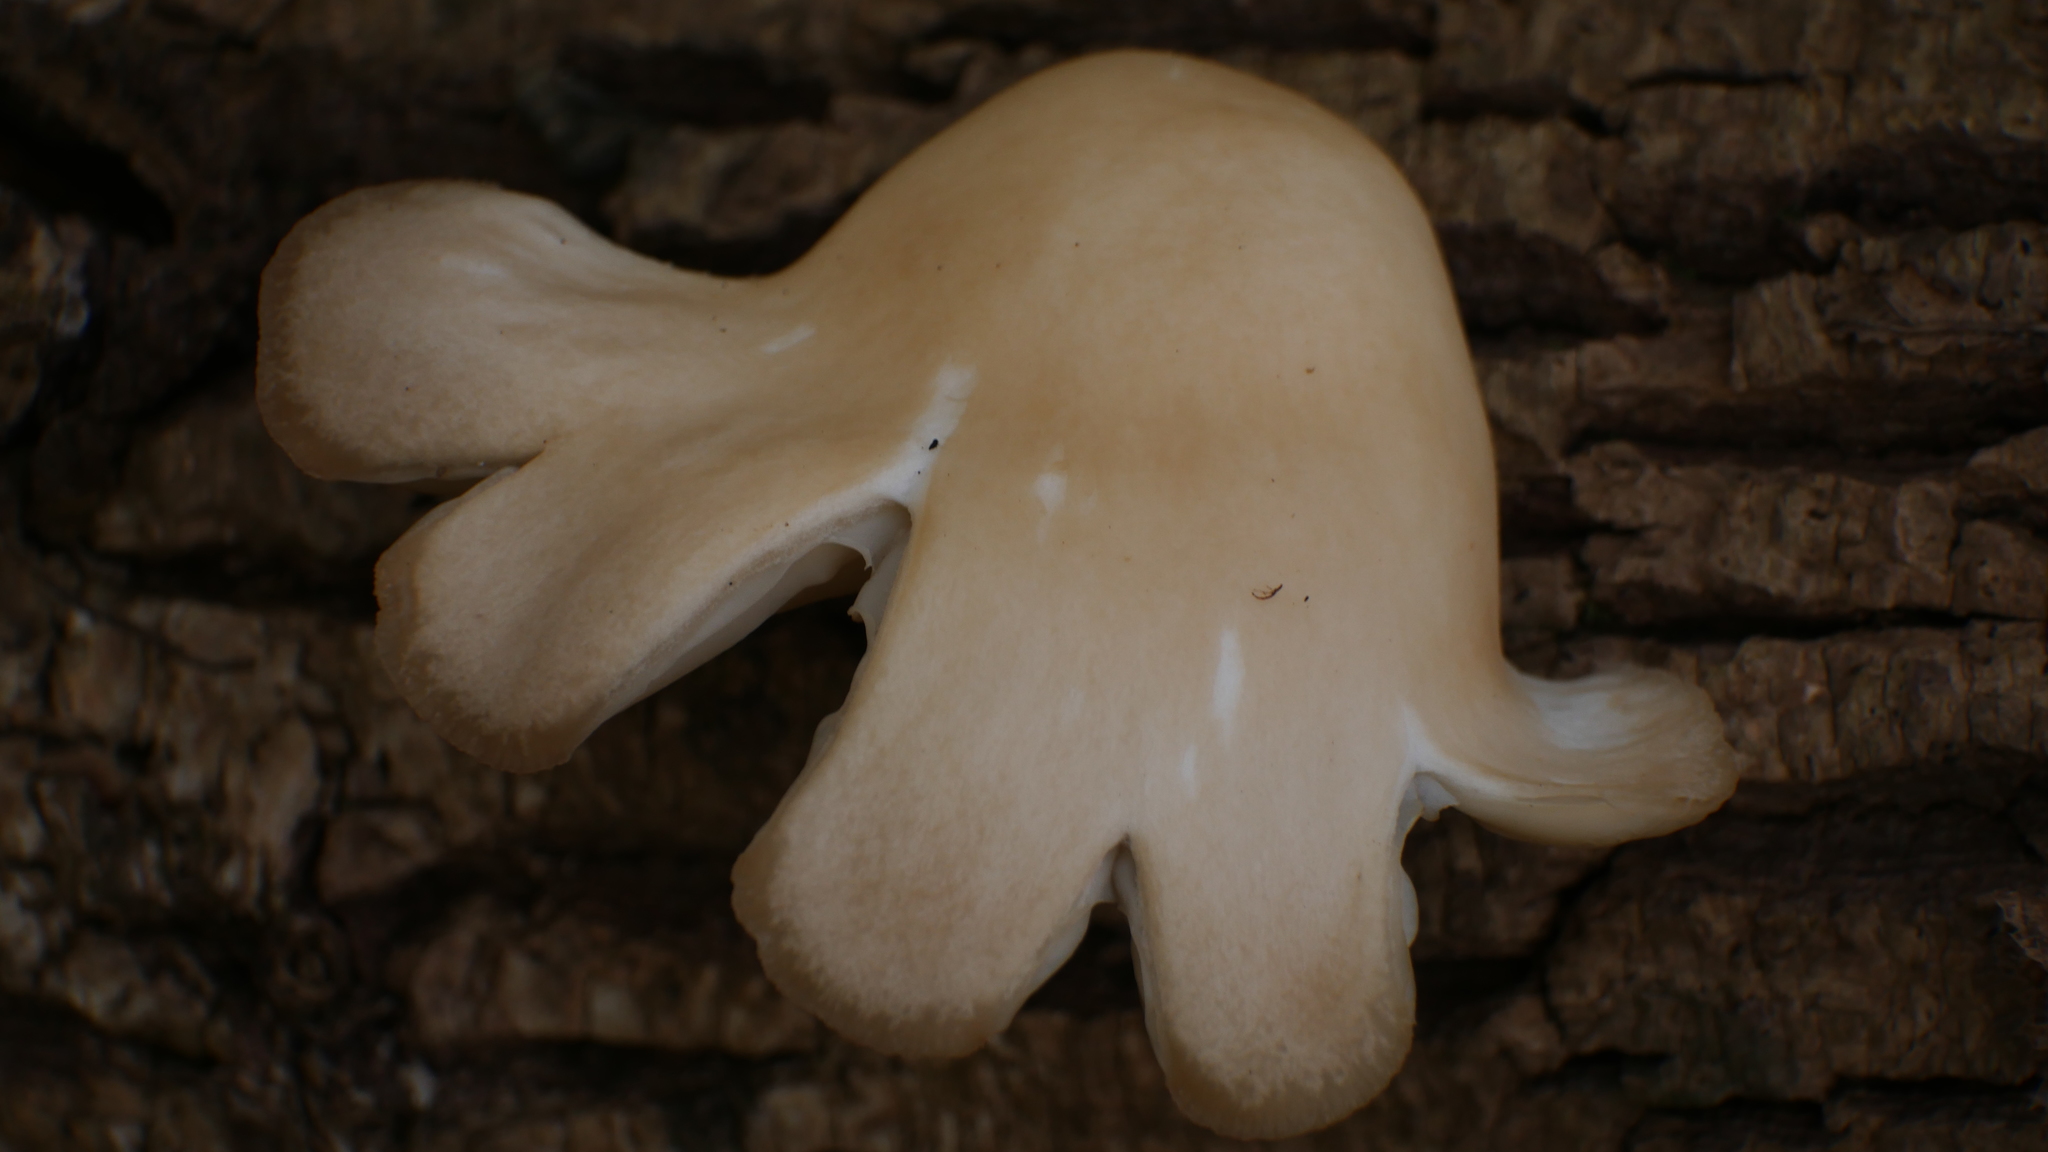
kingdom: Fungi
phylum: Basidiomycota
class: Agaricomycetes
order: Agaricales
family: Pleurotaceae
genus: Pleurotus
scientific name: Pleurotus ostreatus
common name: Oyster mushroom
